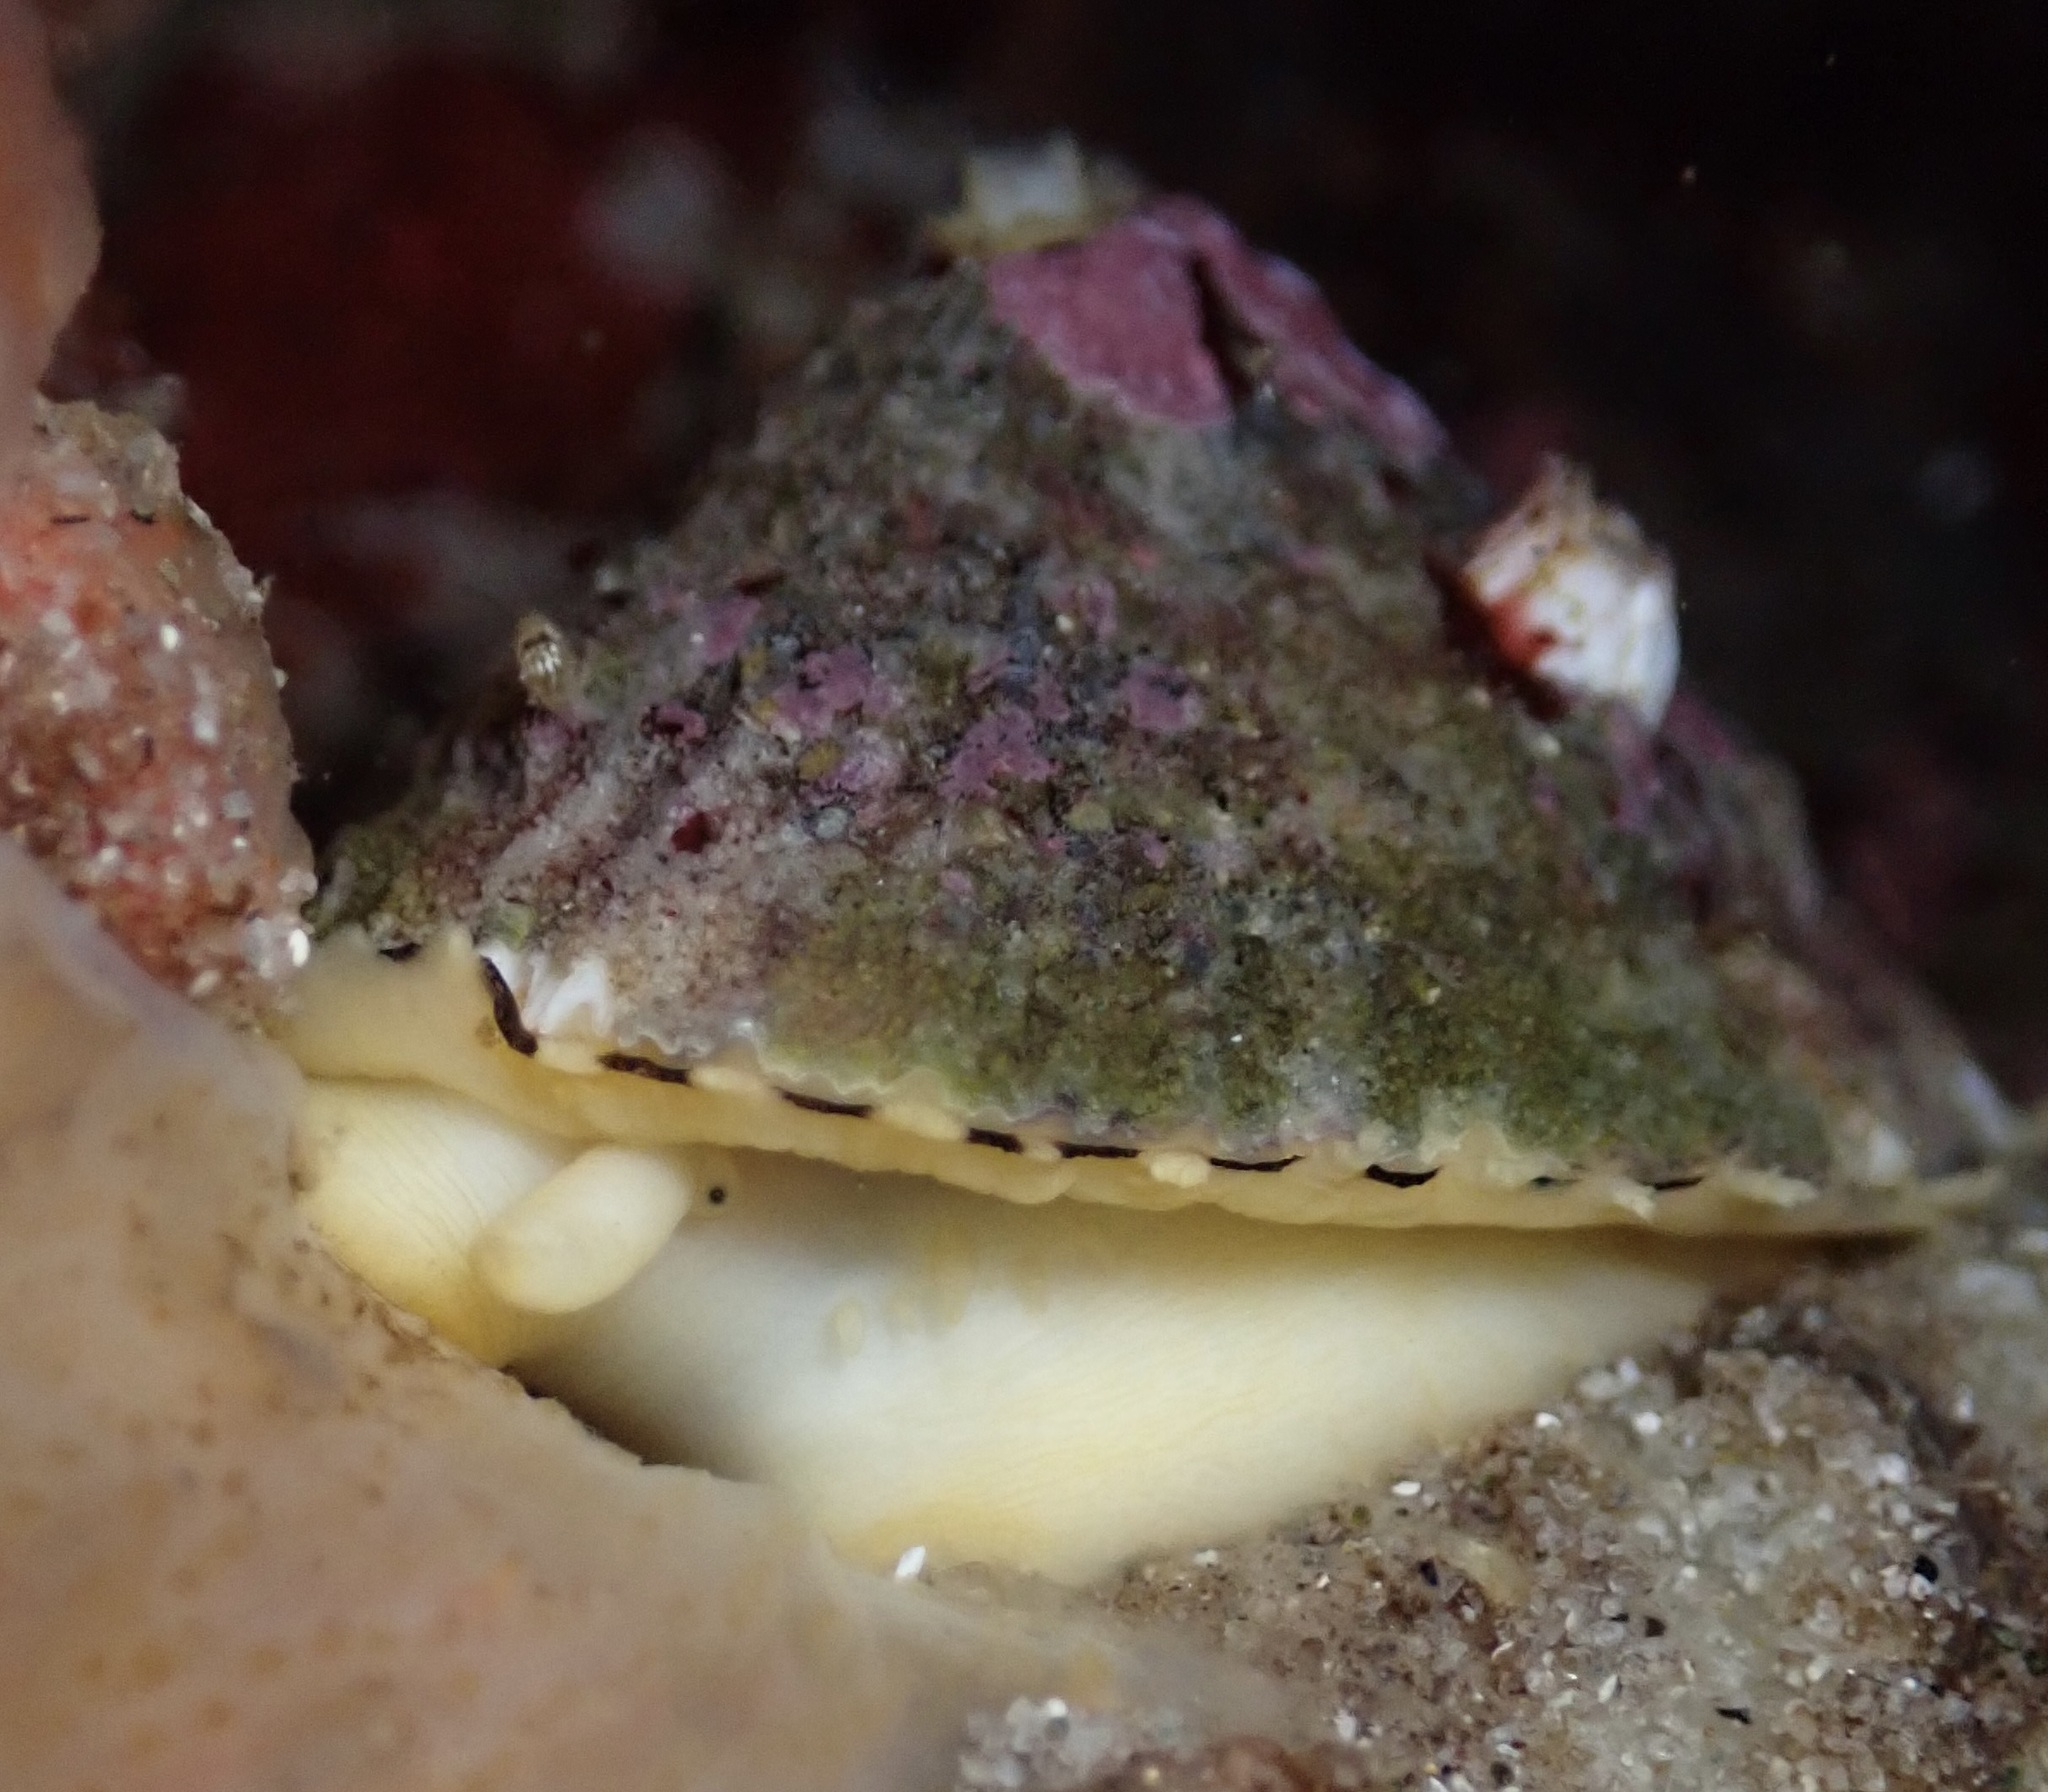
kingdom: Animalia
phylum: Mollusca
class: Gastropoda
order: Lepetellida
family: Fissurellidae
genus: Diodora
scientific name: Diodora aspera
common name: Rough keyhole limpet
